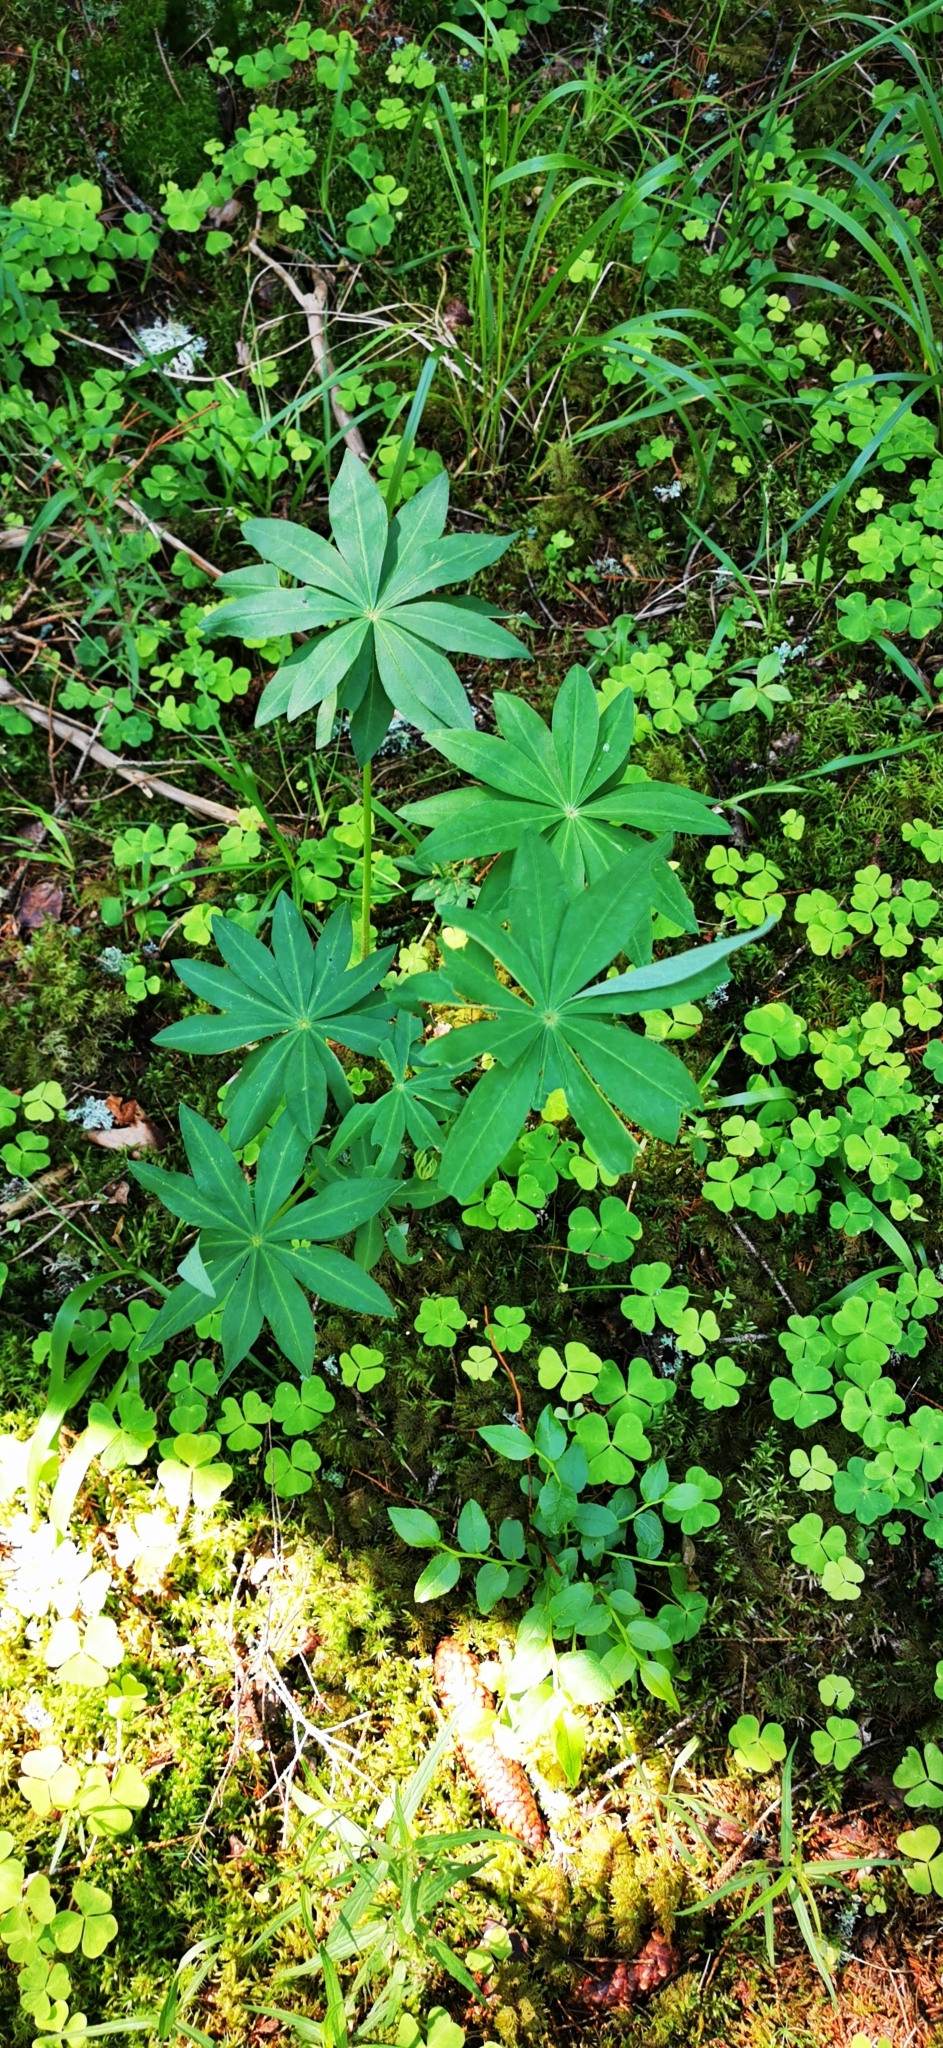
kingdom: Plantae
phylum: Tracheophyta
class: Magnoliopsida
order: Fabales
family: Fabaceae
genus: Lupinus
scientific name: Lupinus polyphyllus
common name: Garden lupin
